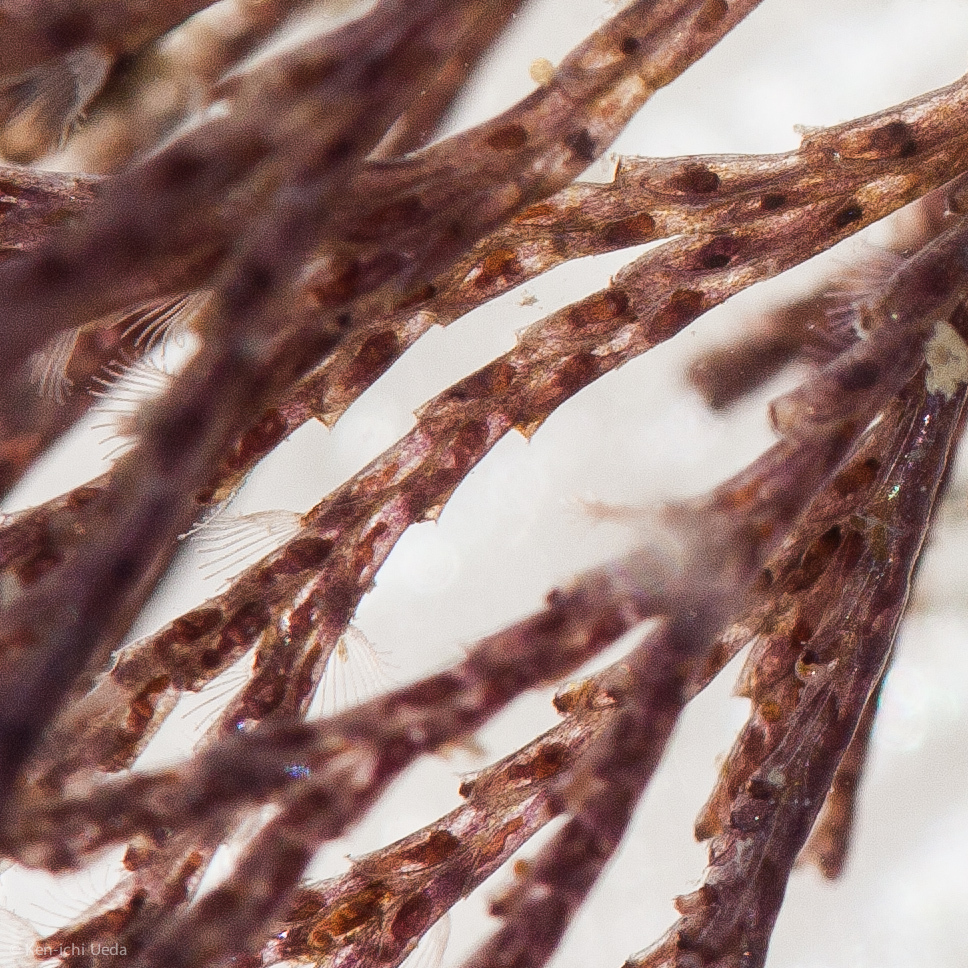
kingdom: Animalia
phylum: Bryozoa
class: Gymnolaemata
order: Cheilostomatida
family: Bugulidae
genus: Bugula
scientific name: Bugula neritina
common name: Brown bryozoan
